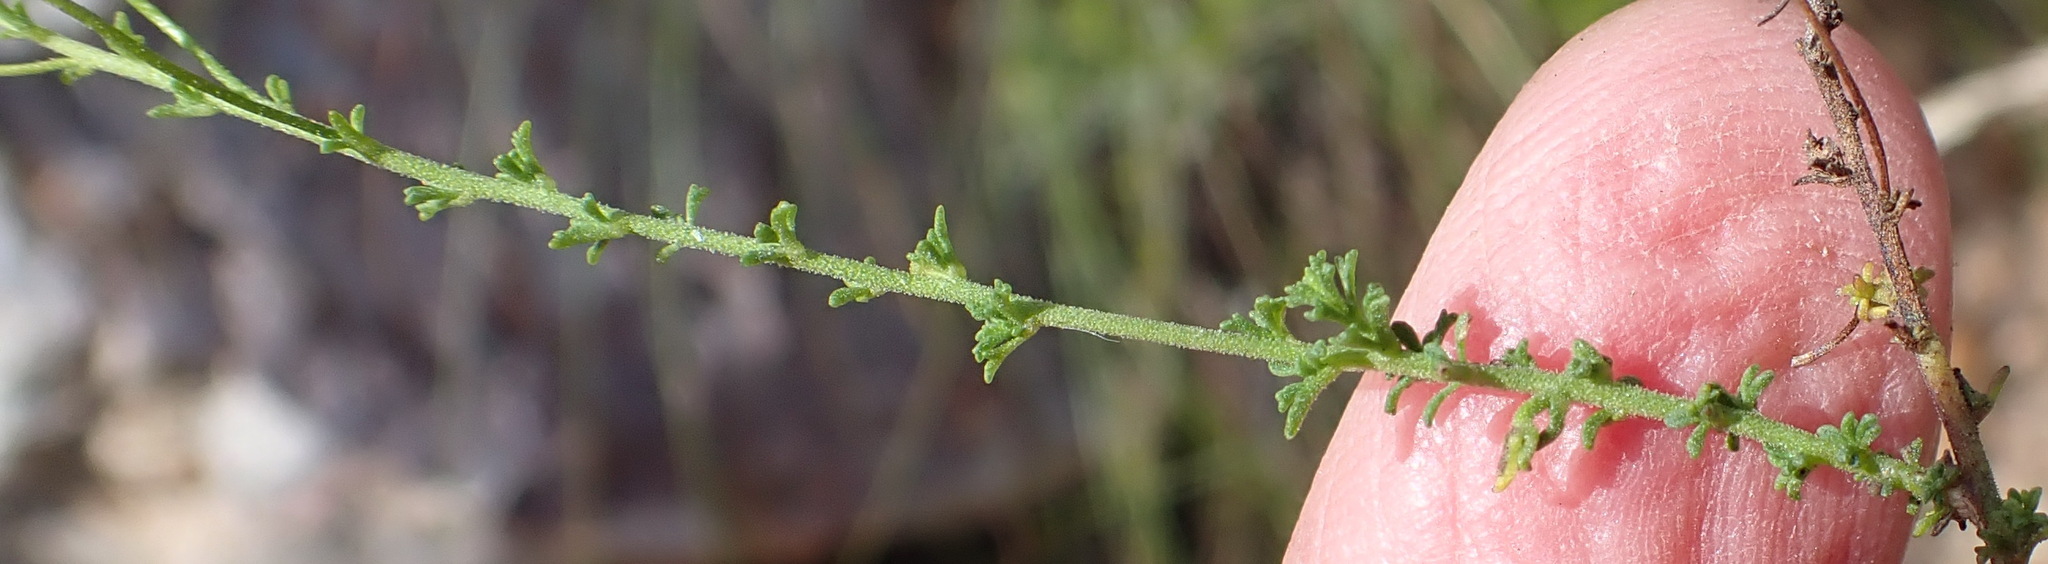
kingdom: Plantae
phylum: Tracheophyta
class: Magnoliopsida
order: Lamiales
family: Scrophulariaceae
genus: Jamesbrittenia
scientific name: Jamesbrittenia aspalathoides
